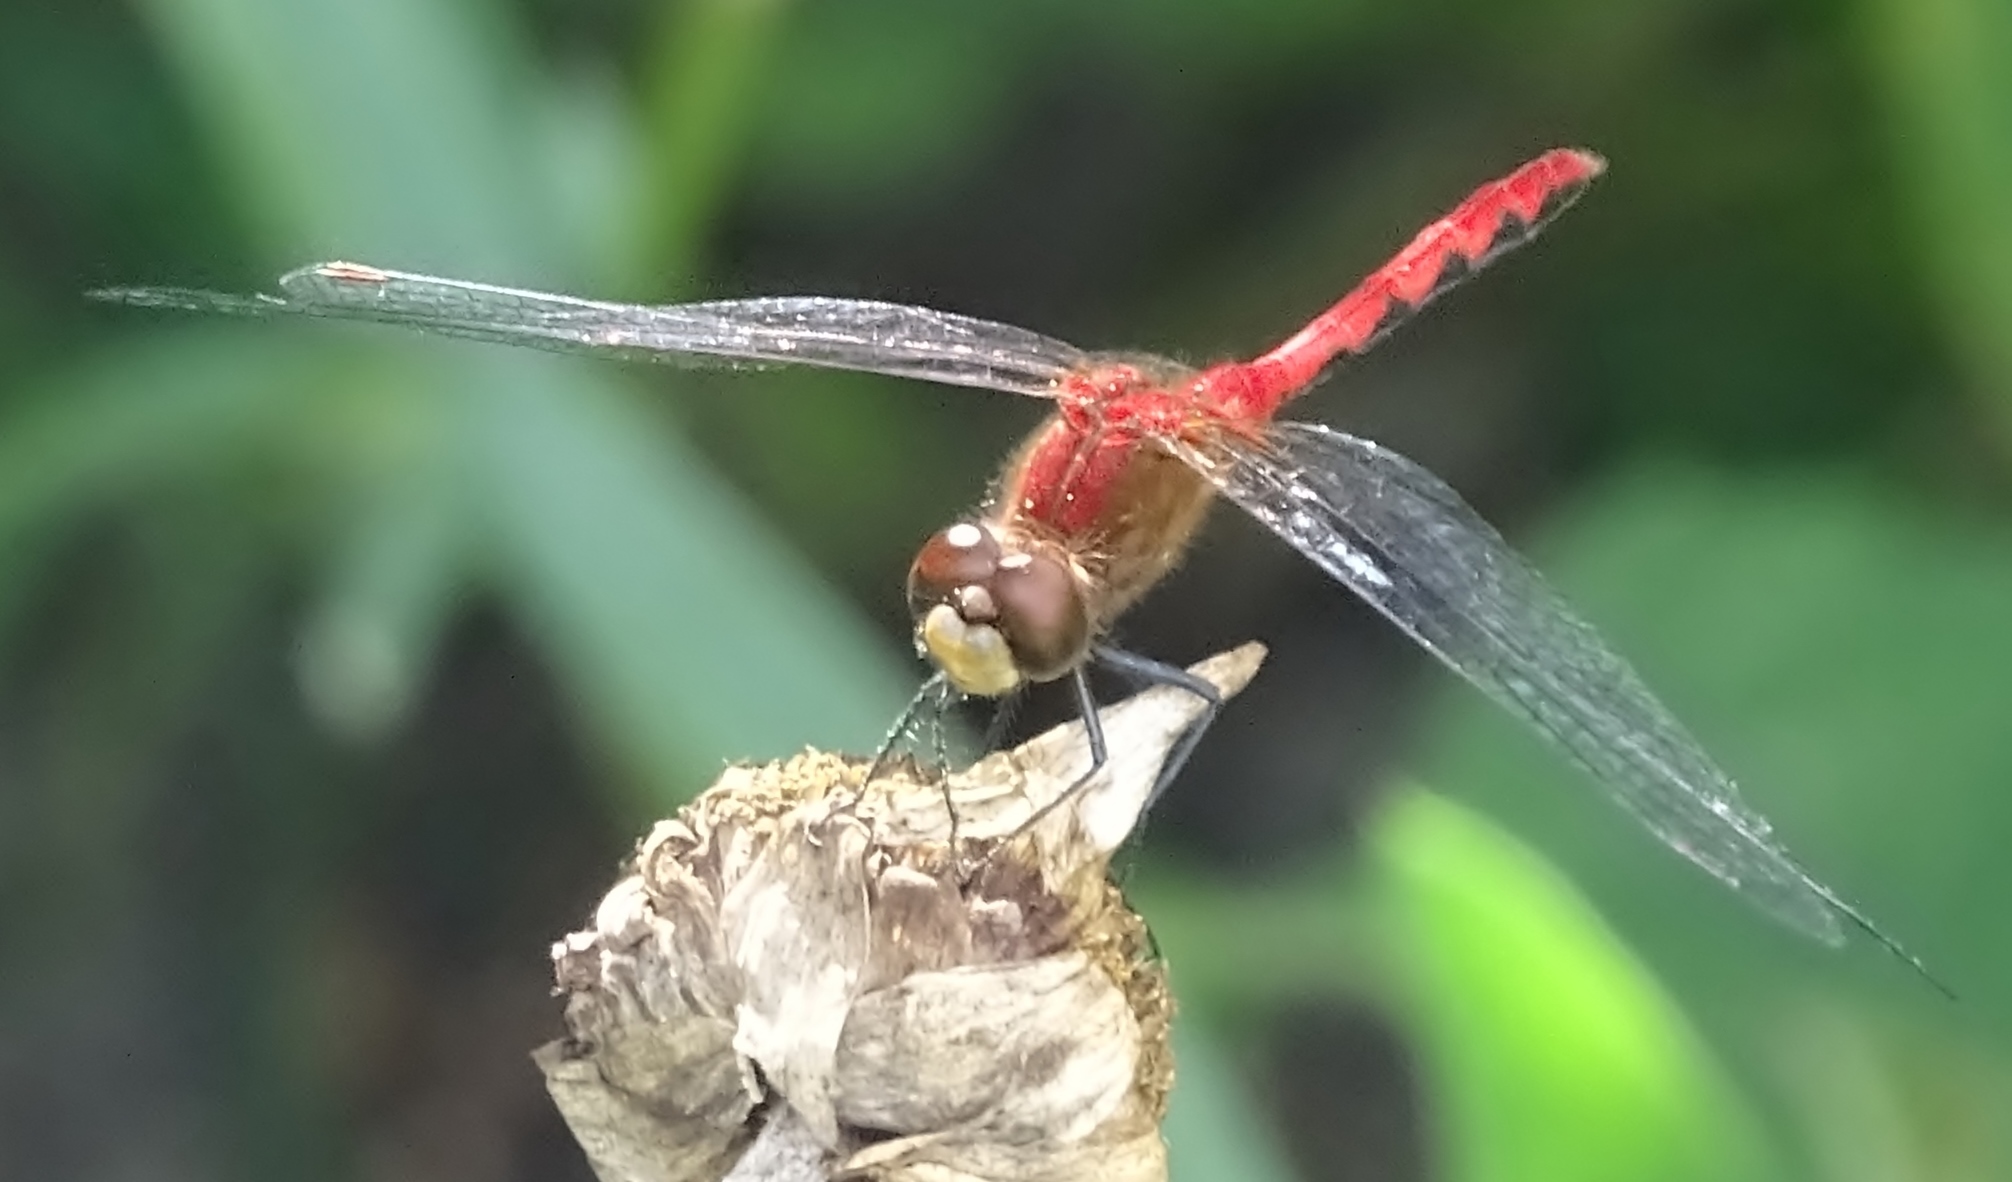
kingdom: Animalia
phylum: Arthropoda
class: Insecta
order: Odonata
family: Libellulidae
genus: Sympetrum
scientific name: Sympetrum
